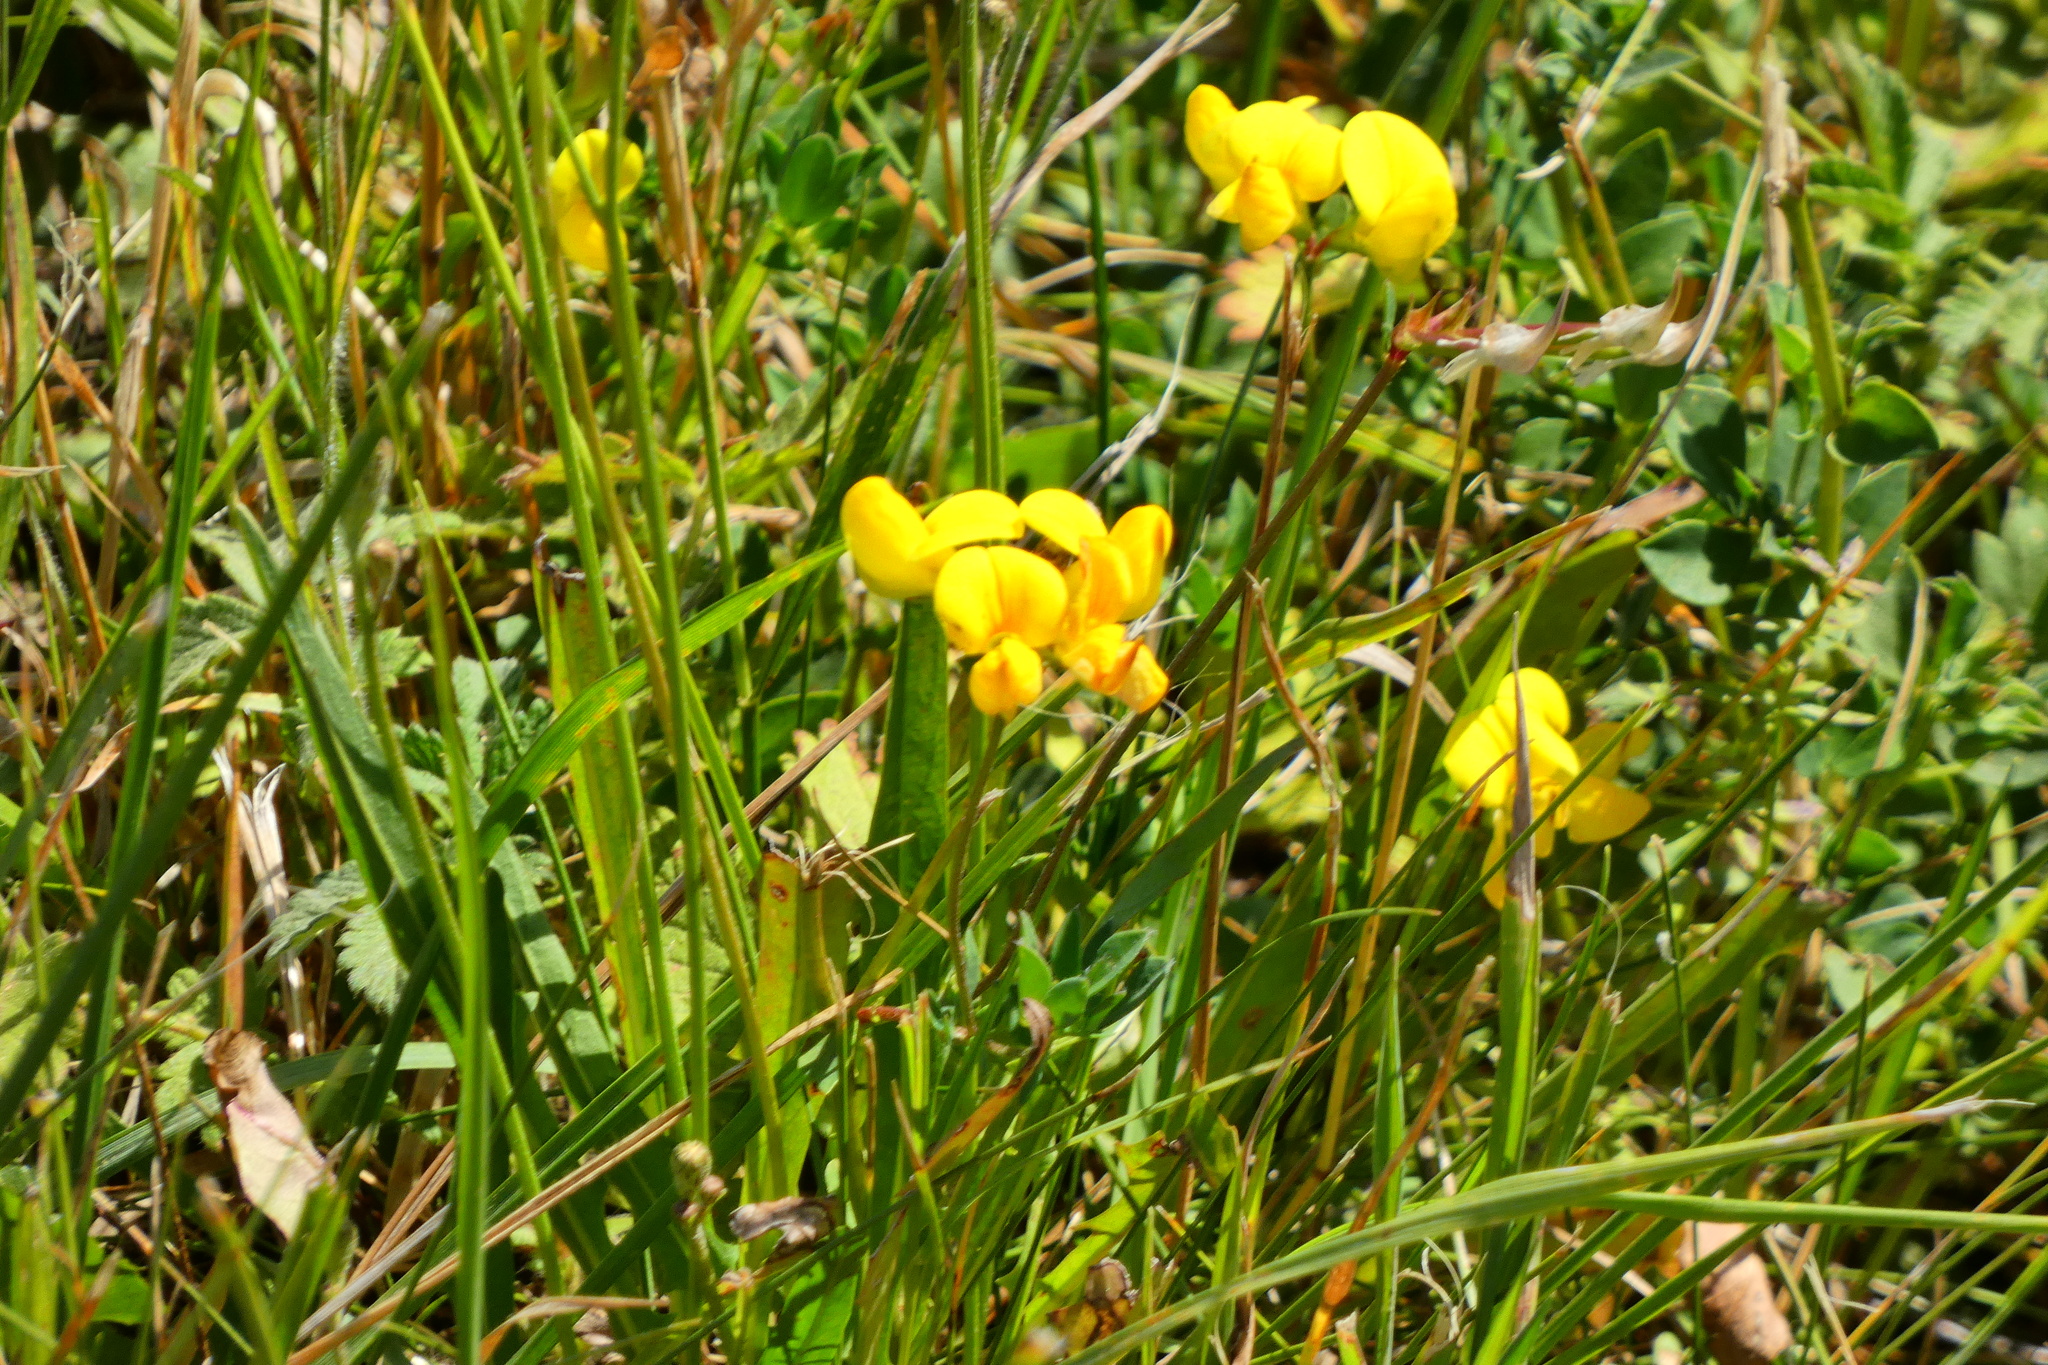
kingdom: Plantae
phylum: Tracheophyta
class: Magnoliopsida
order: Fabales
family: Fabaceae
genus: Lotus
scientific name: Lotus corniculatus
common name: Common bird's-foot-trefoil
